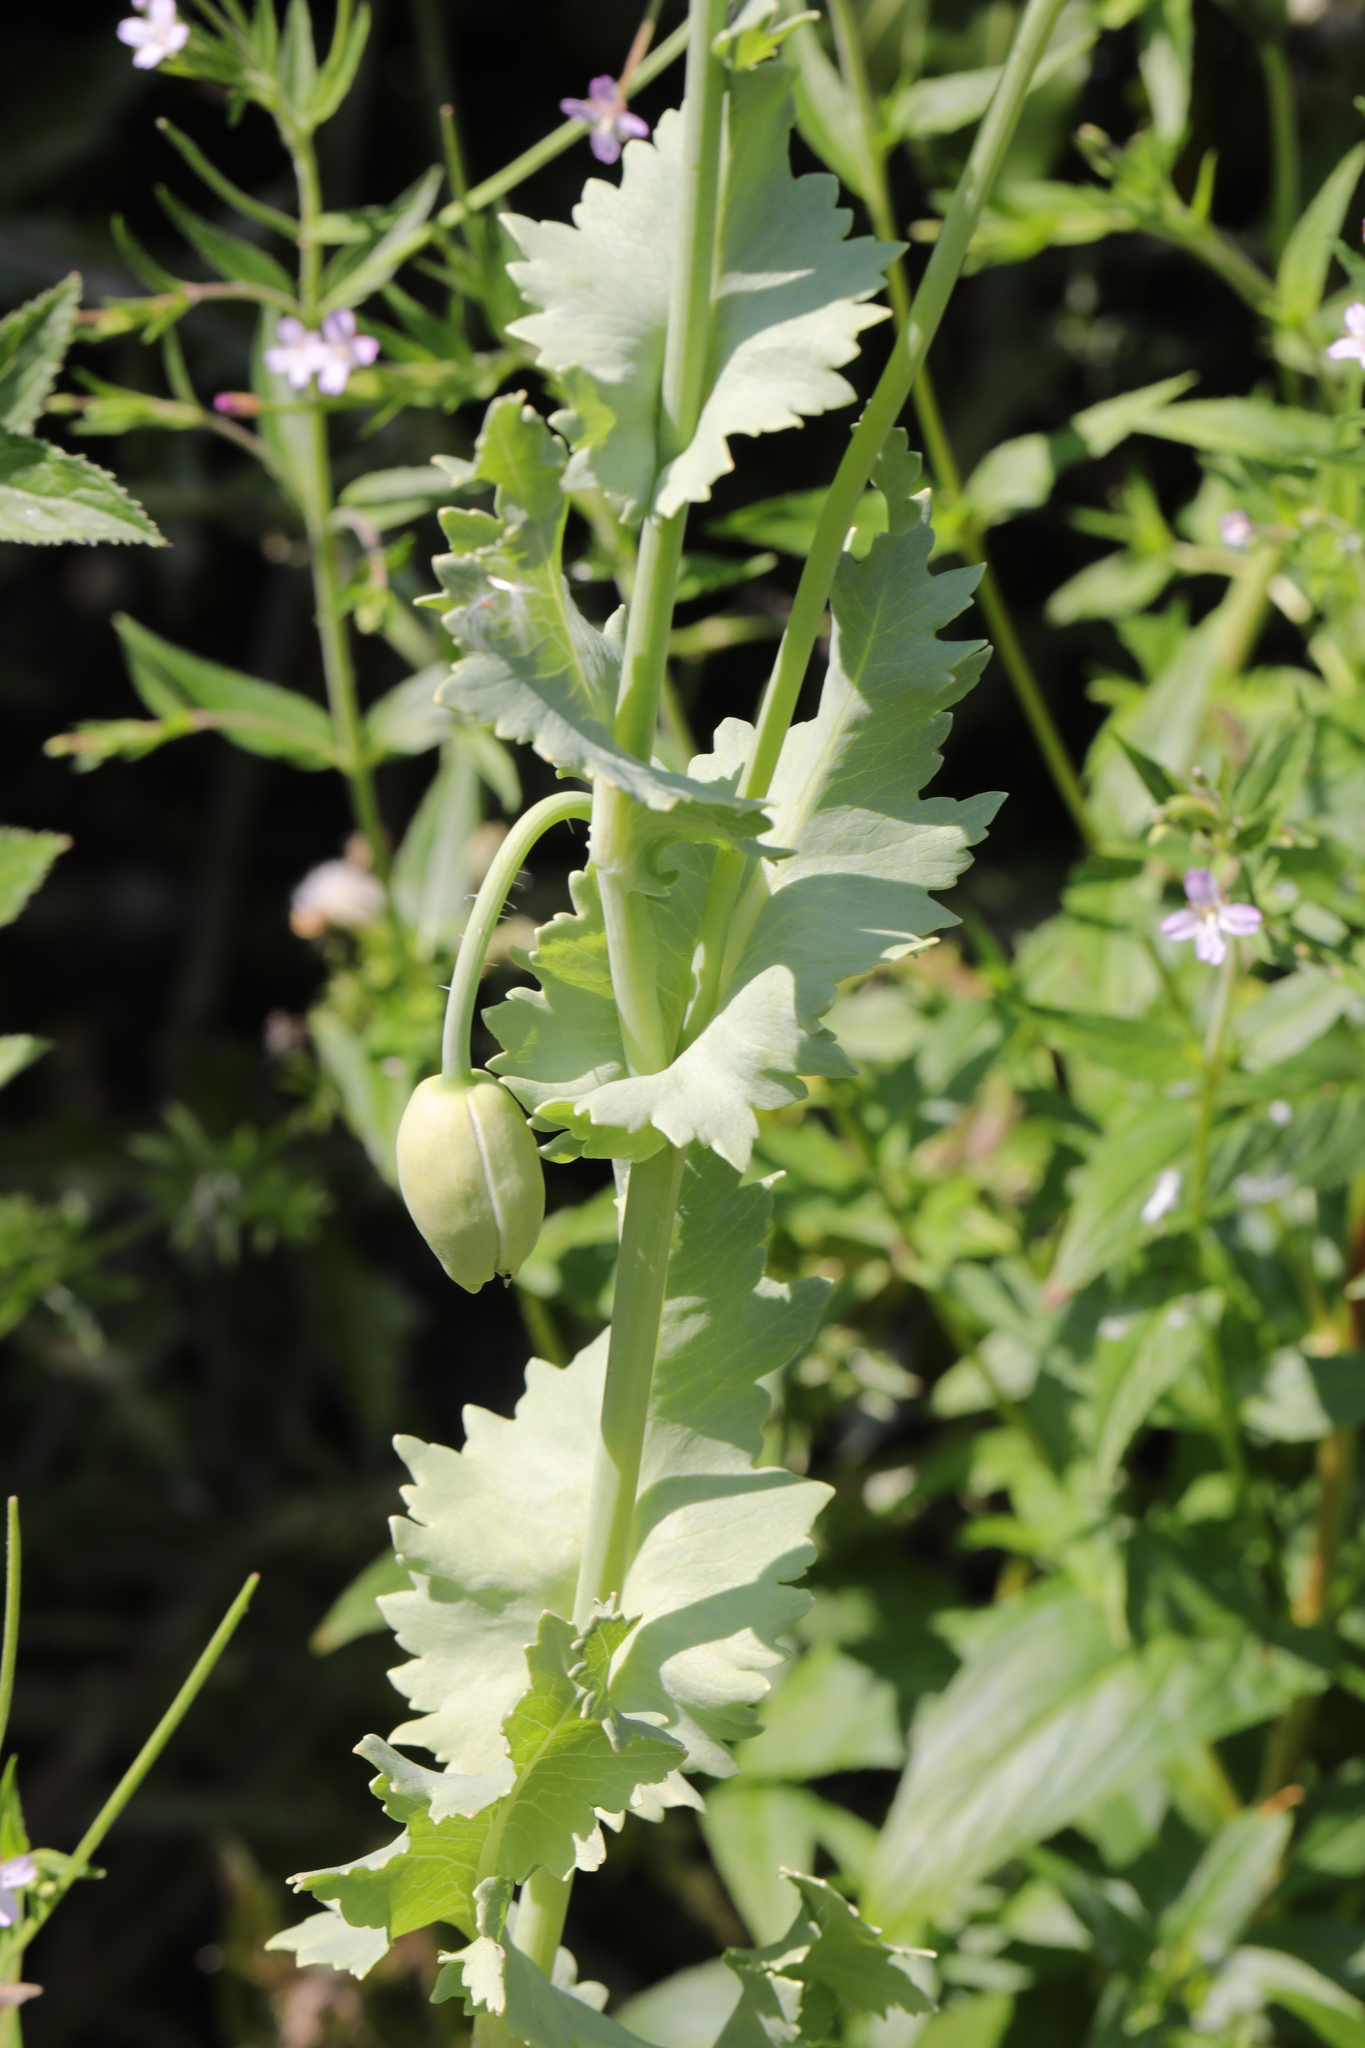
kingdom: Plantae
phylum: Tracheophyta
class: Magnoliopsida
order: Ranunculales
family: Papaveraceae
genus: Papaver
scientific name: Papaver somniferum
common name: Opium poppy
